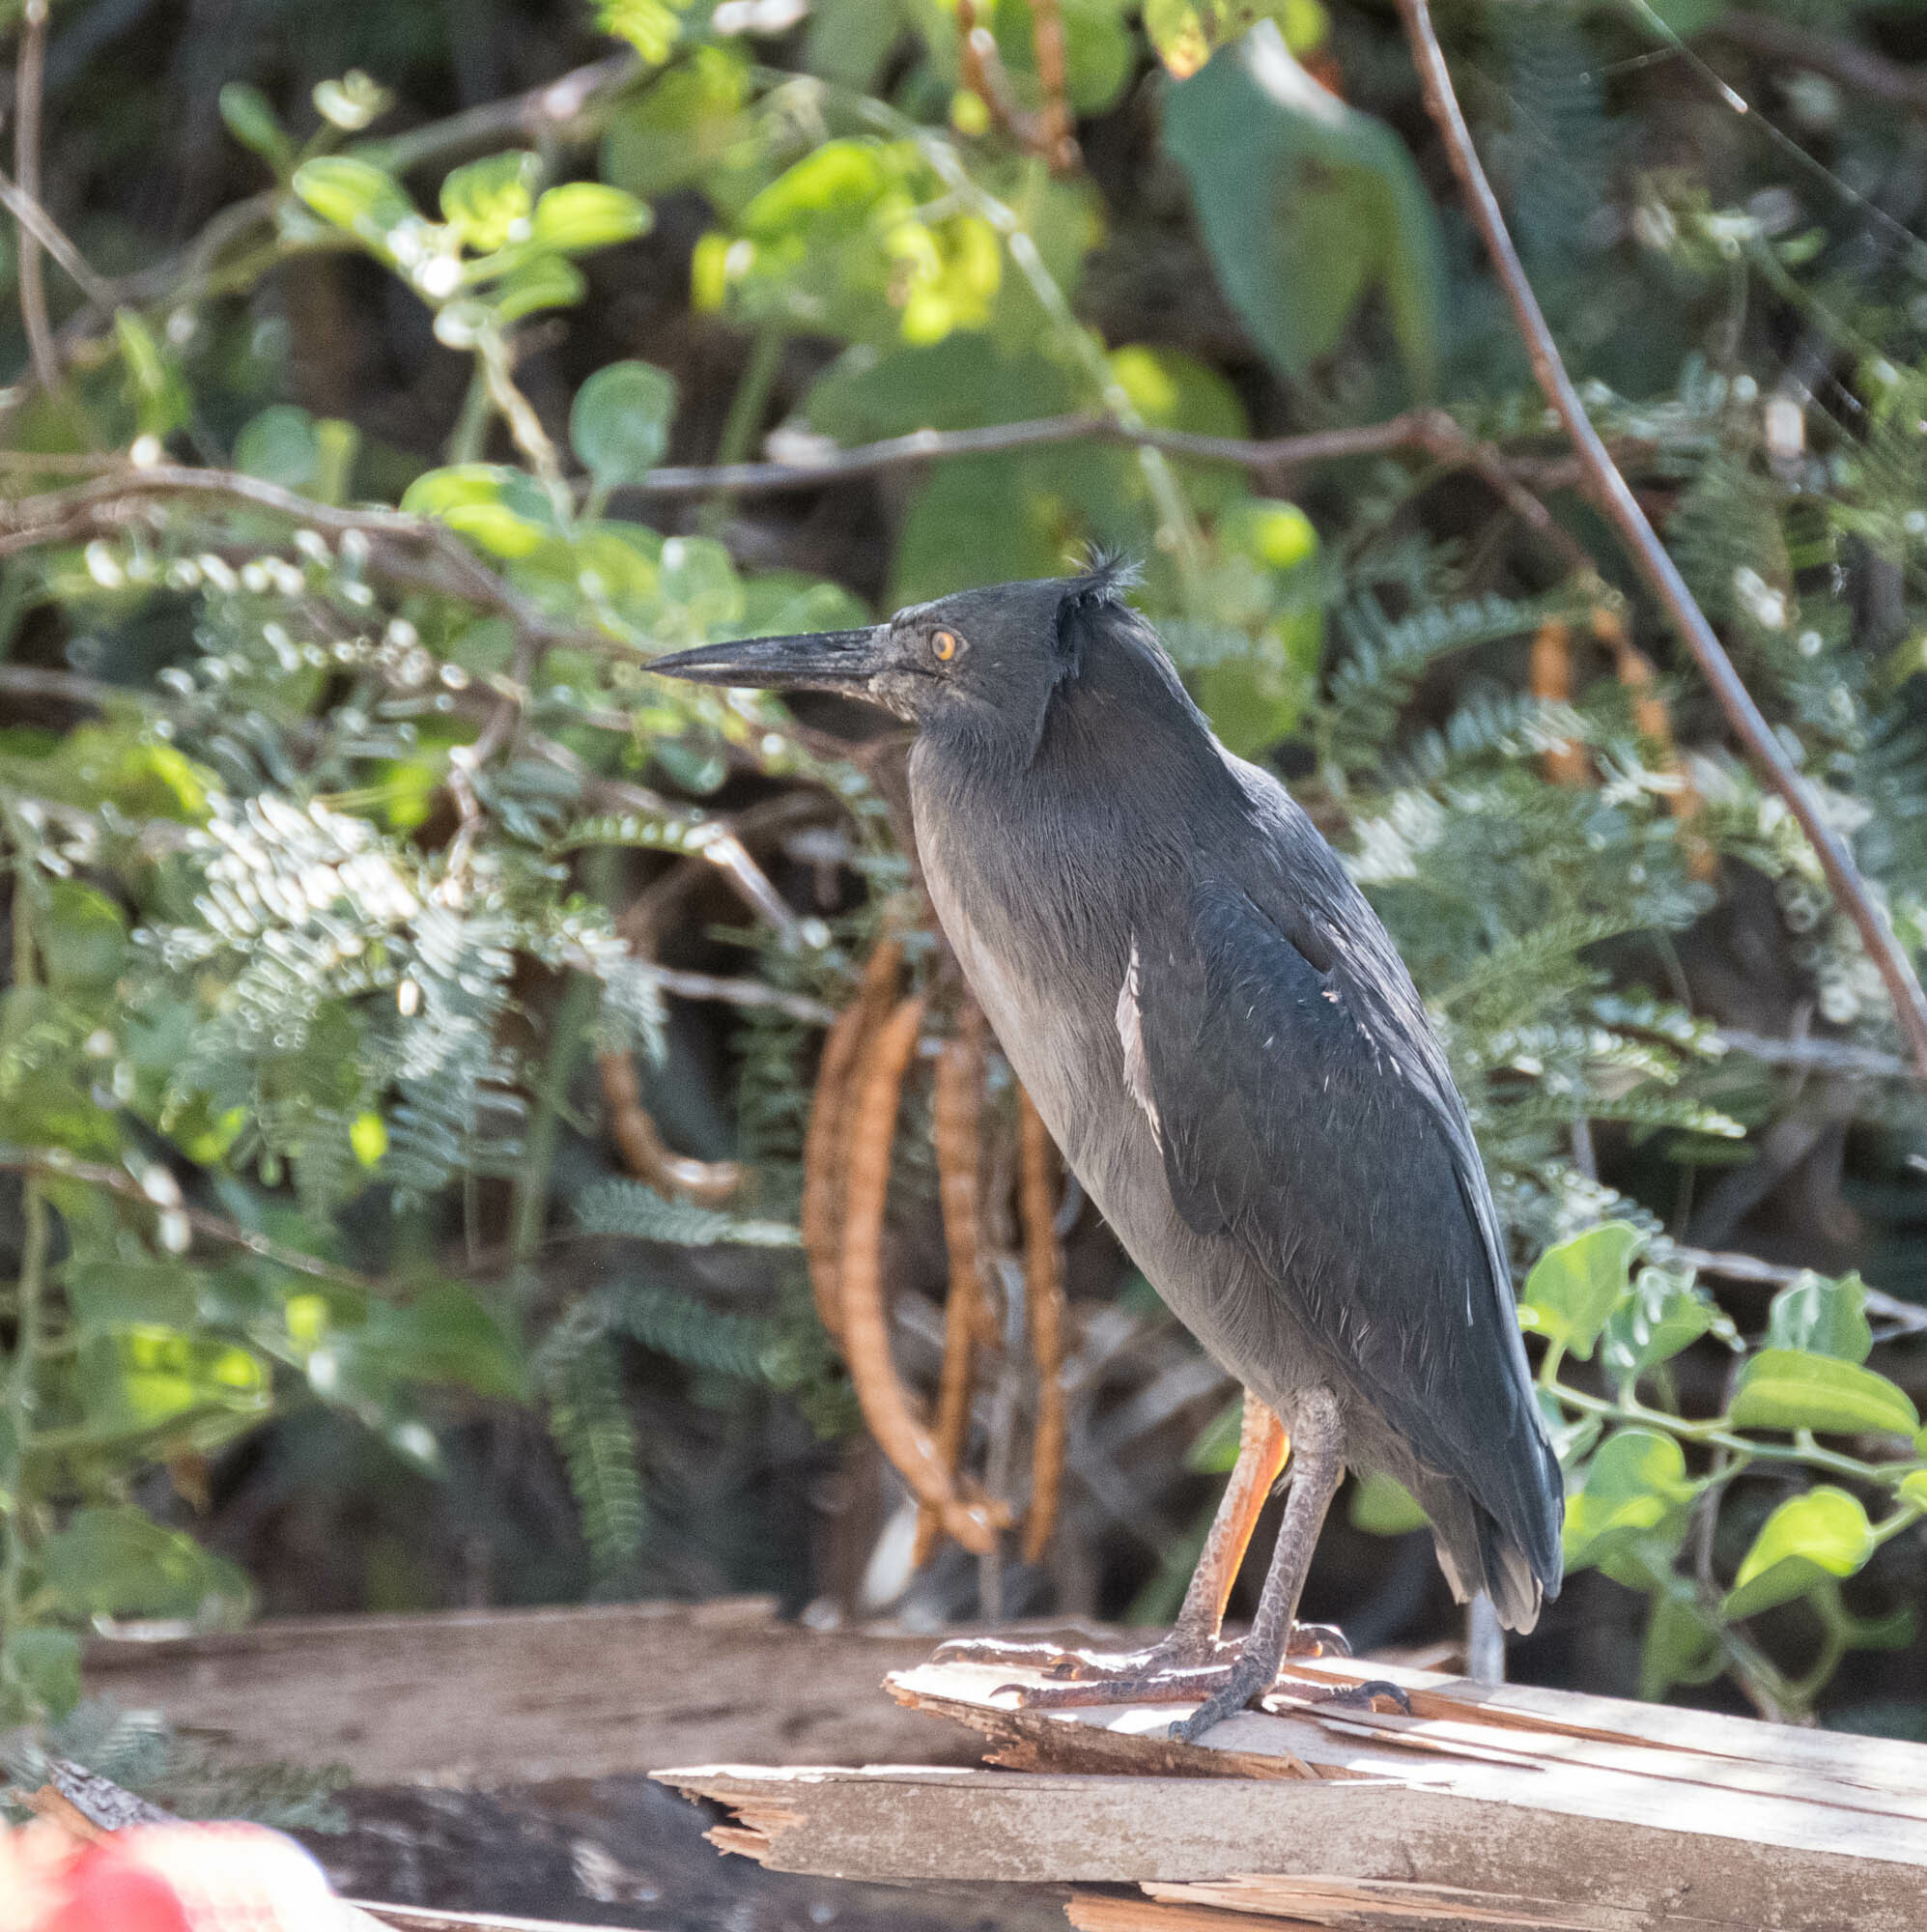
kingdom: Animalia
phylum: Chordata
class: Aves
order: Pelecaniformes
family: Ardeidae
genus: Butorides
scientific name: Butorides striata
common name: Striated heron
